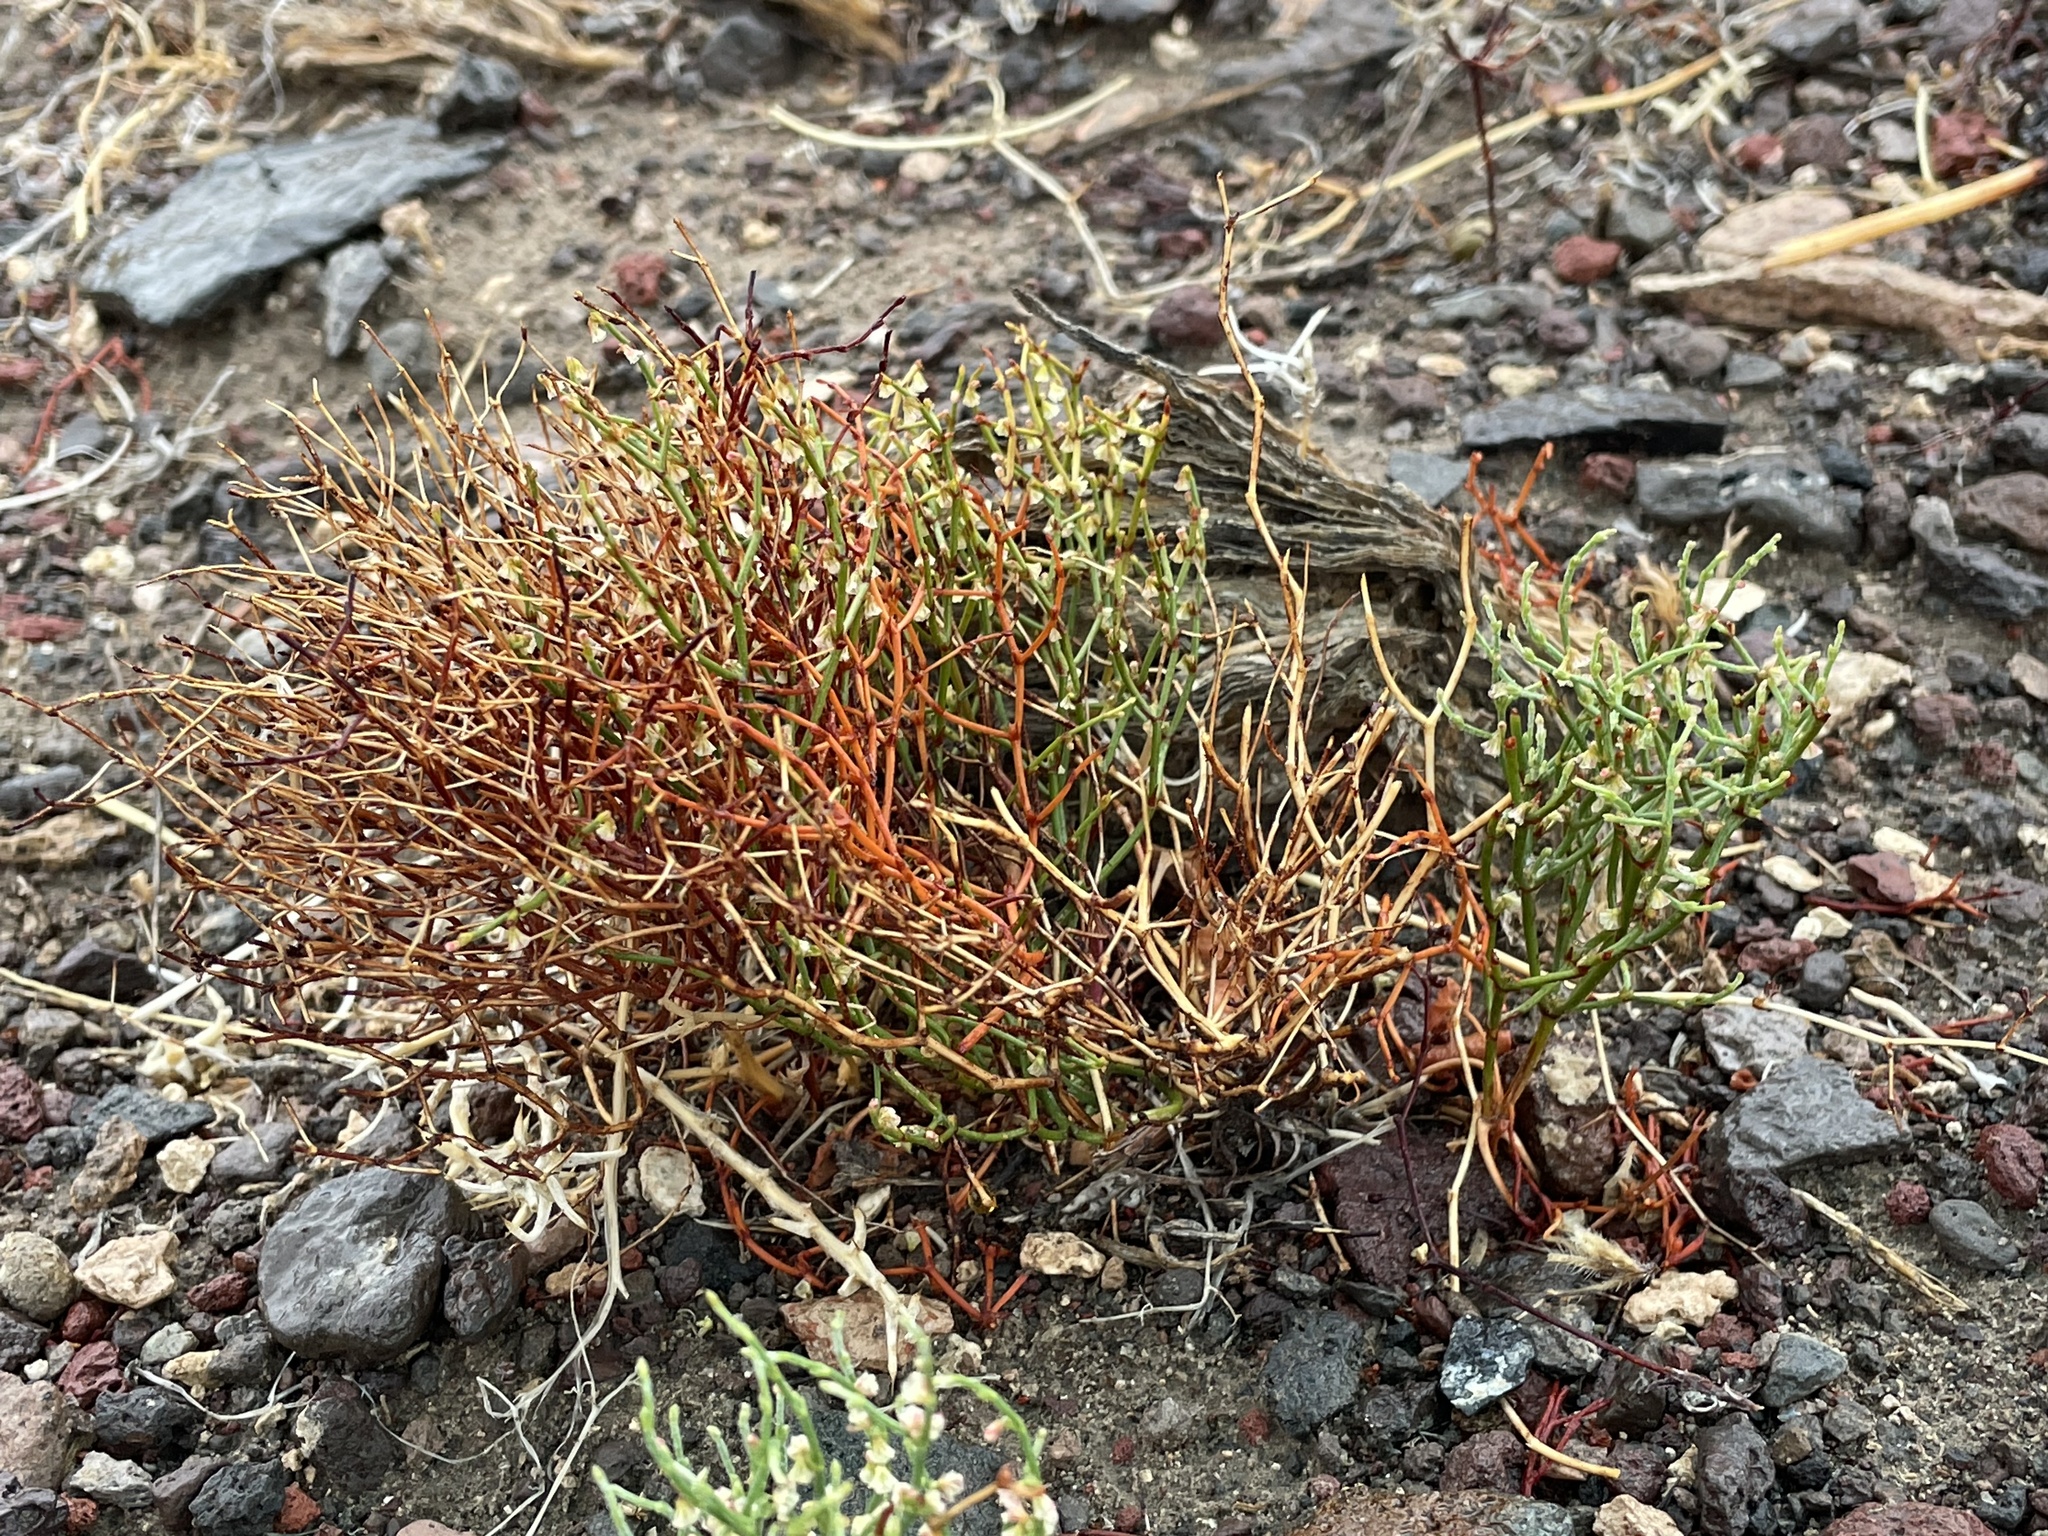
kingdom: Plantae
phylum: Tracheophyta
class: Magnoliopsida
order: Caryophyllales
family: Polygonaceae
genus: Eriogonum
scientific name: Eriogonum nidularium
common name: Bird's-nest wild buckwheat
